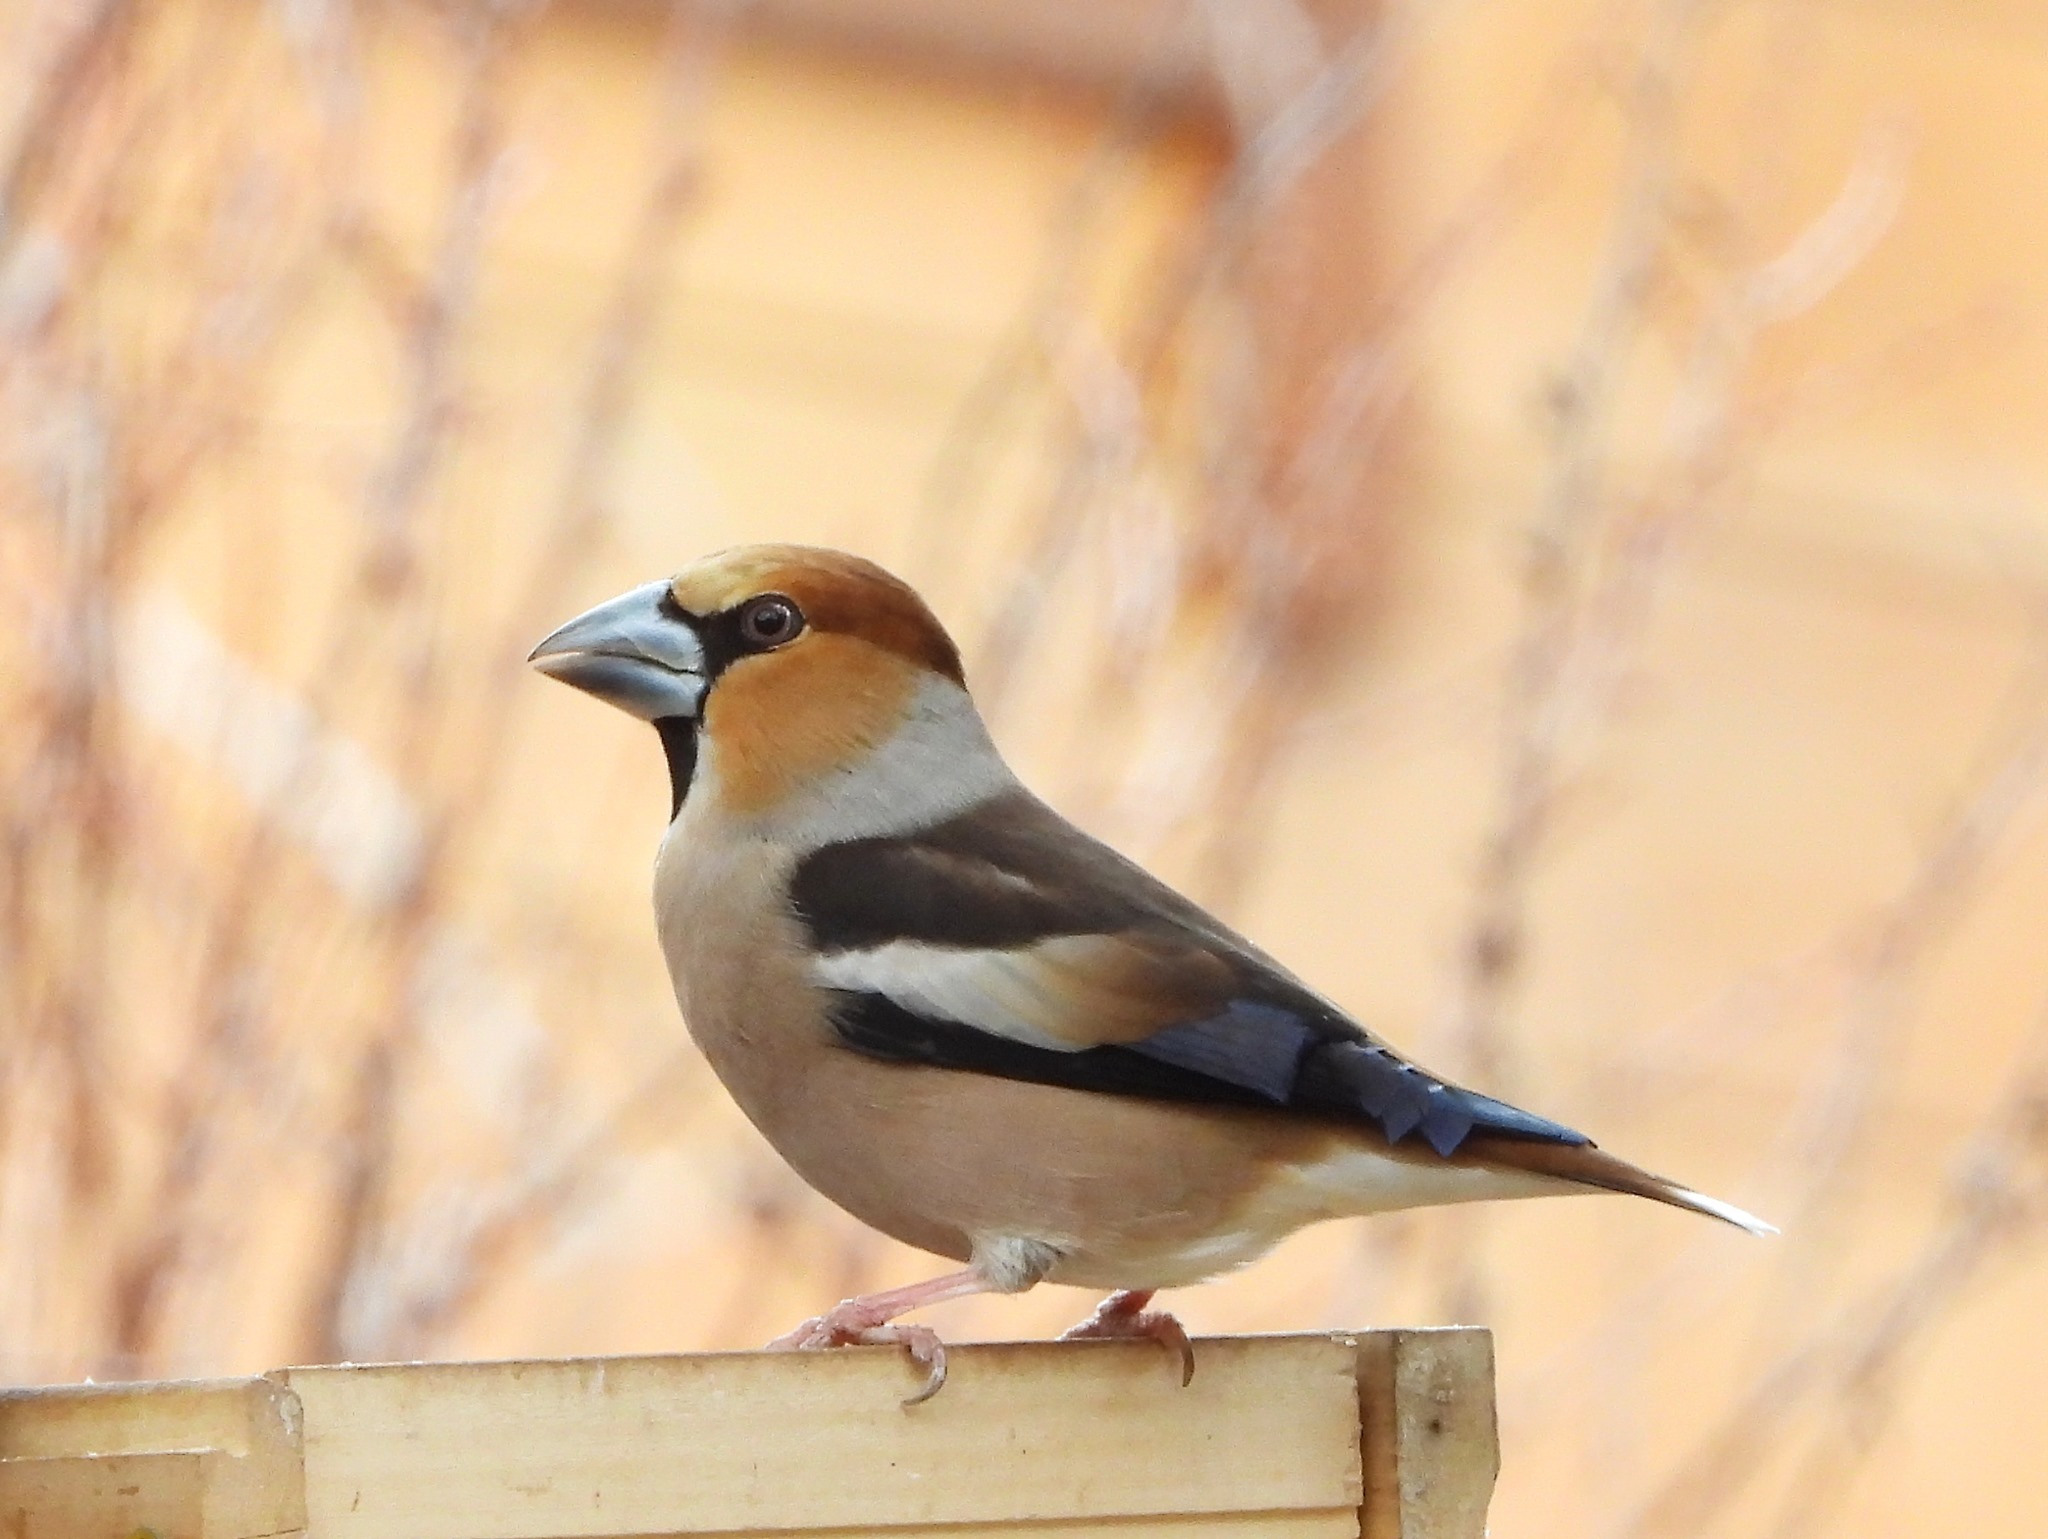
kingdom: Animalia
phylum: Chordata
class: Aves
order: Passeriformes
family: Fringillidae
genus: Coccothraustes
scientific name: Coccothraustes coccothraustes
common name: Hawfinch
